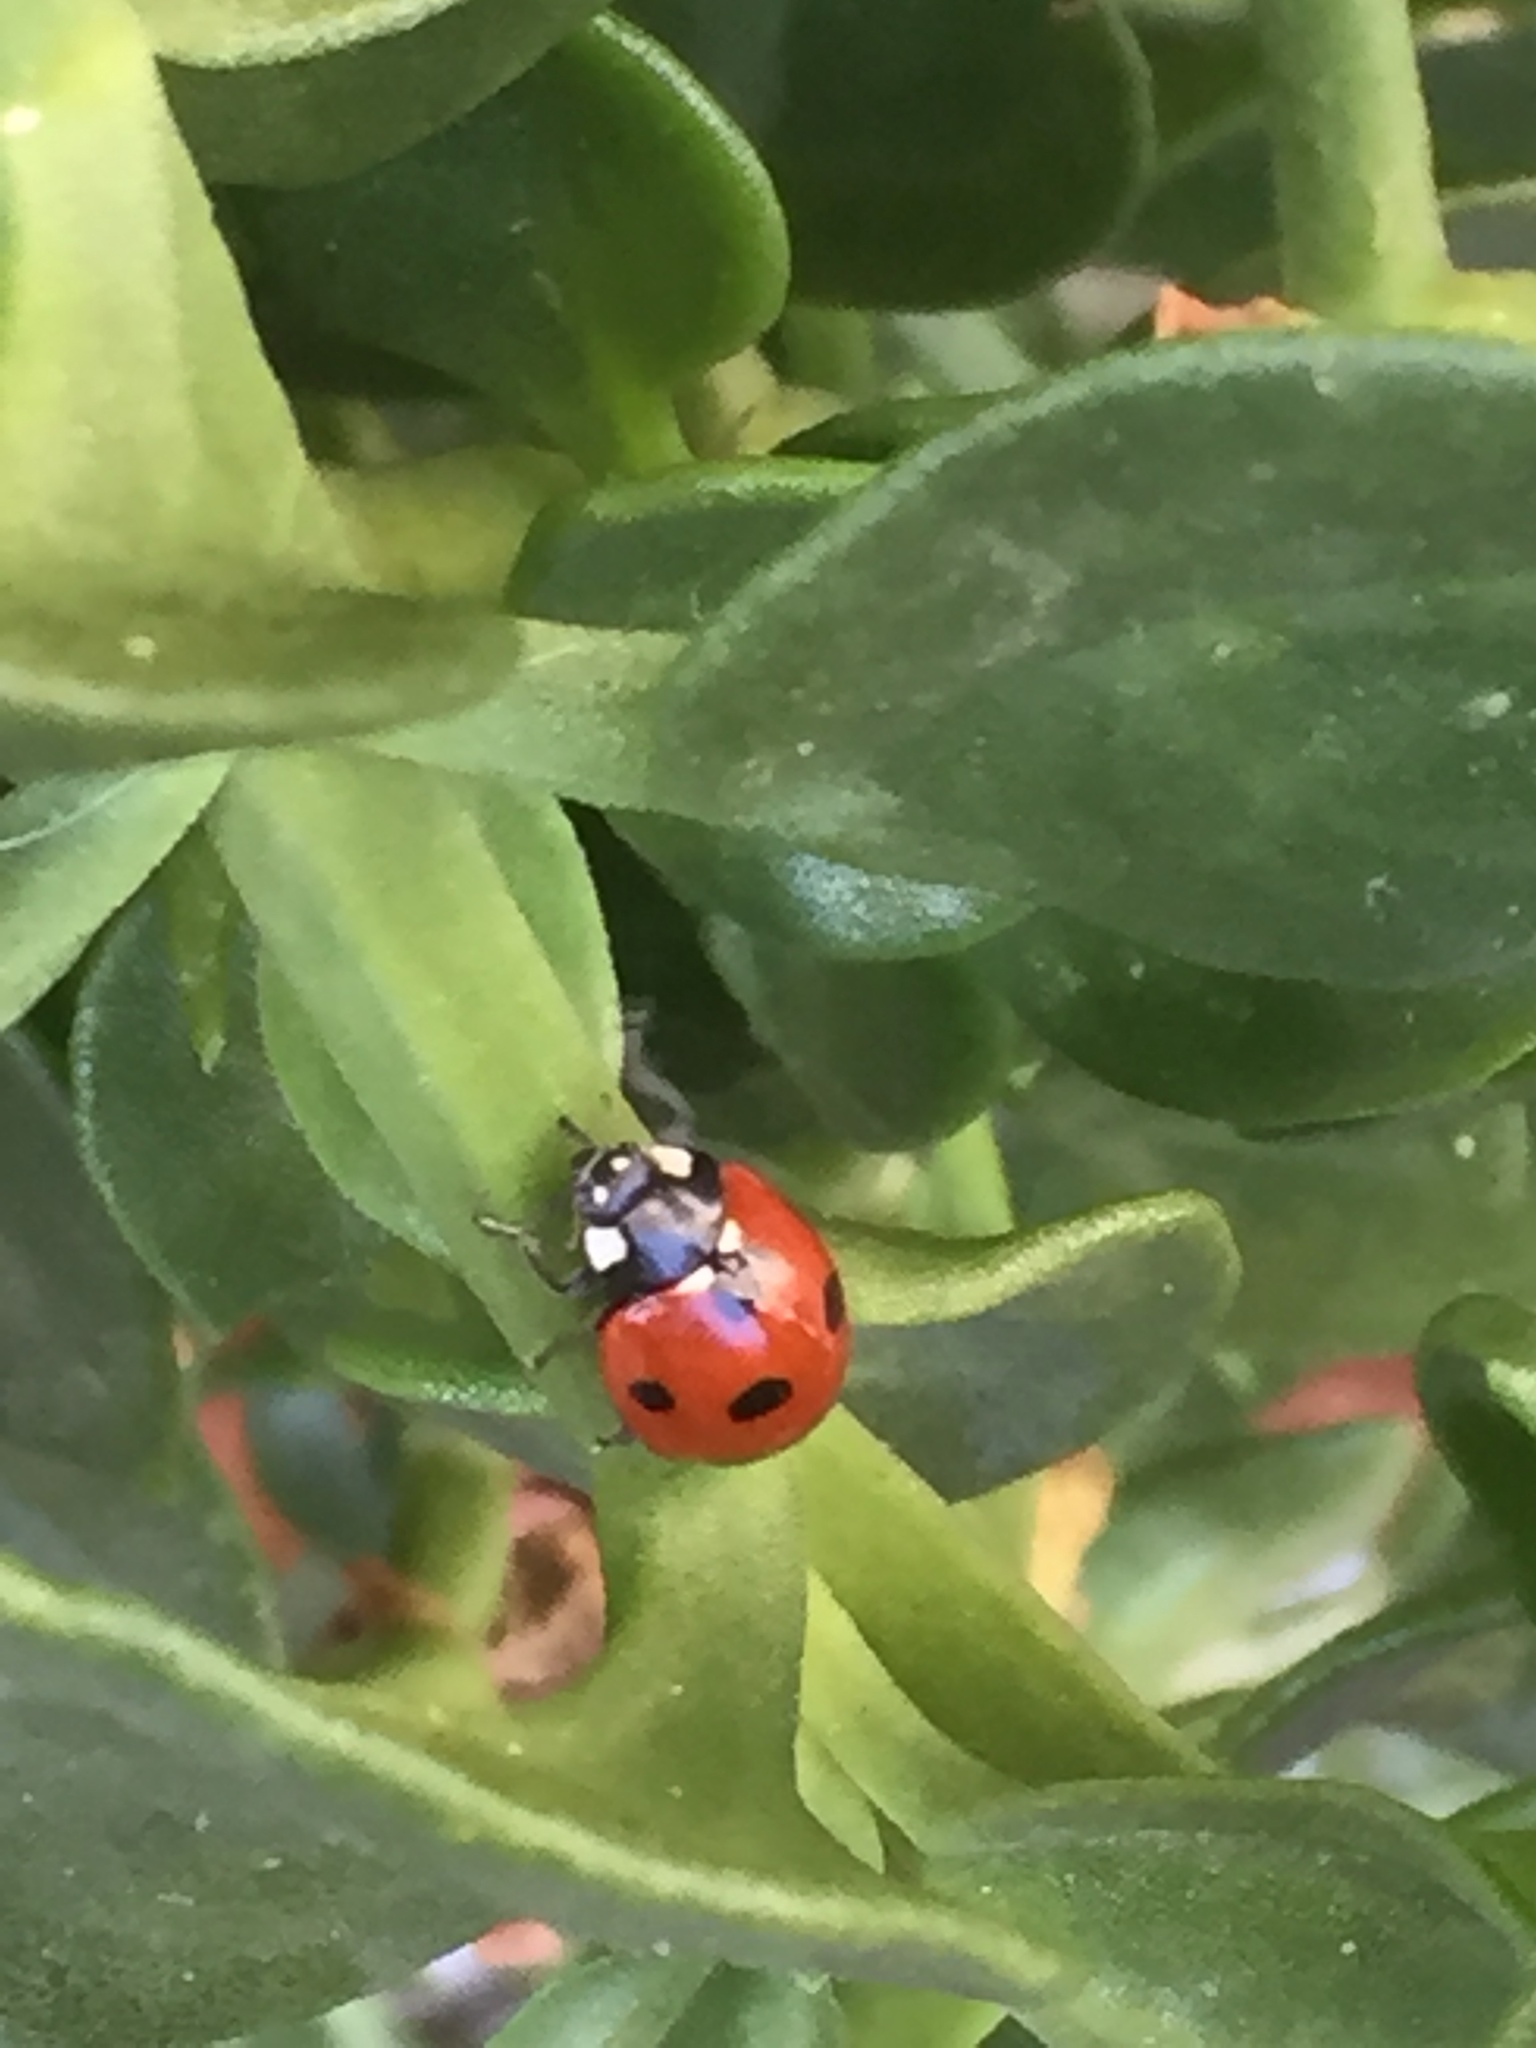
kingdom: Animalia
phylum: Arthropoda
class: Insecta
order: Coleoptera
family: Coccinellidae
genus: Coccinella
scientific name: Coccinella septempunctata
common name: Sevenspotted lady beetle
